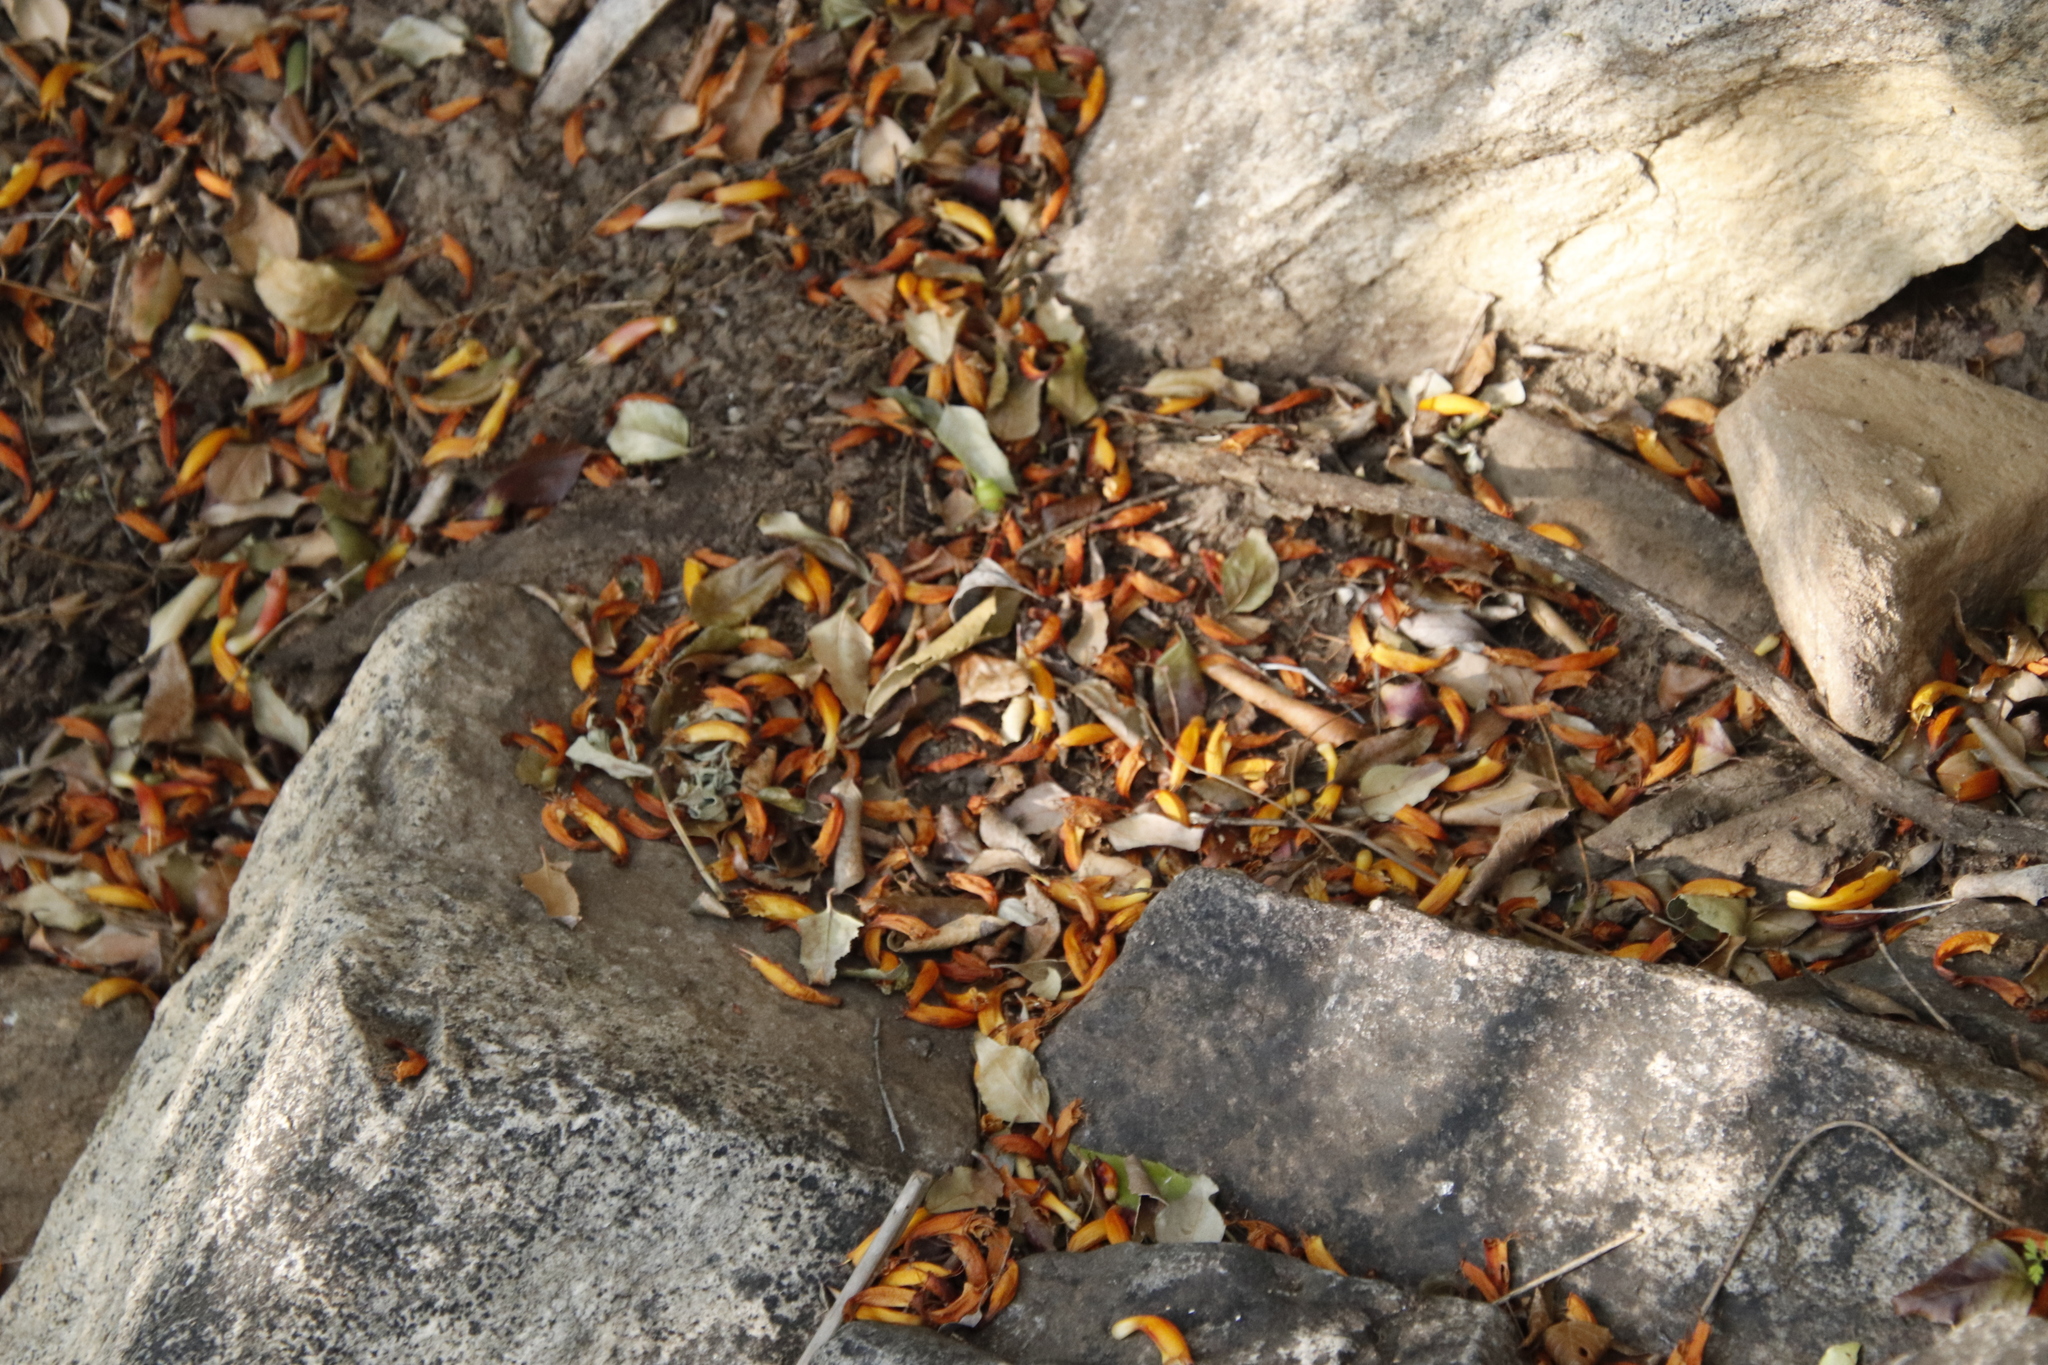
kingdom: Plantae
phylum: Tracheophyta
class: Magnoliopsida
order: Lamiales
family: Stilbaceae
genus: Halleria
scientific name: Halleria lucida
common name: Tree fuschia
